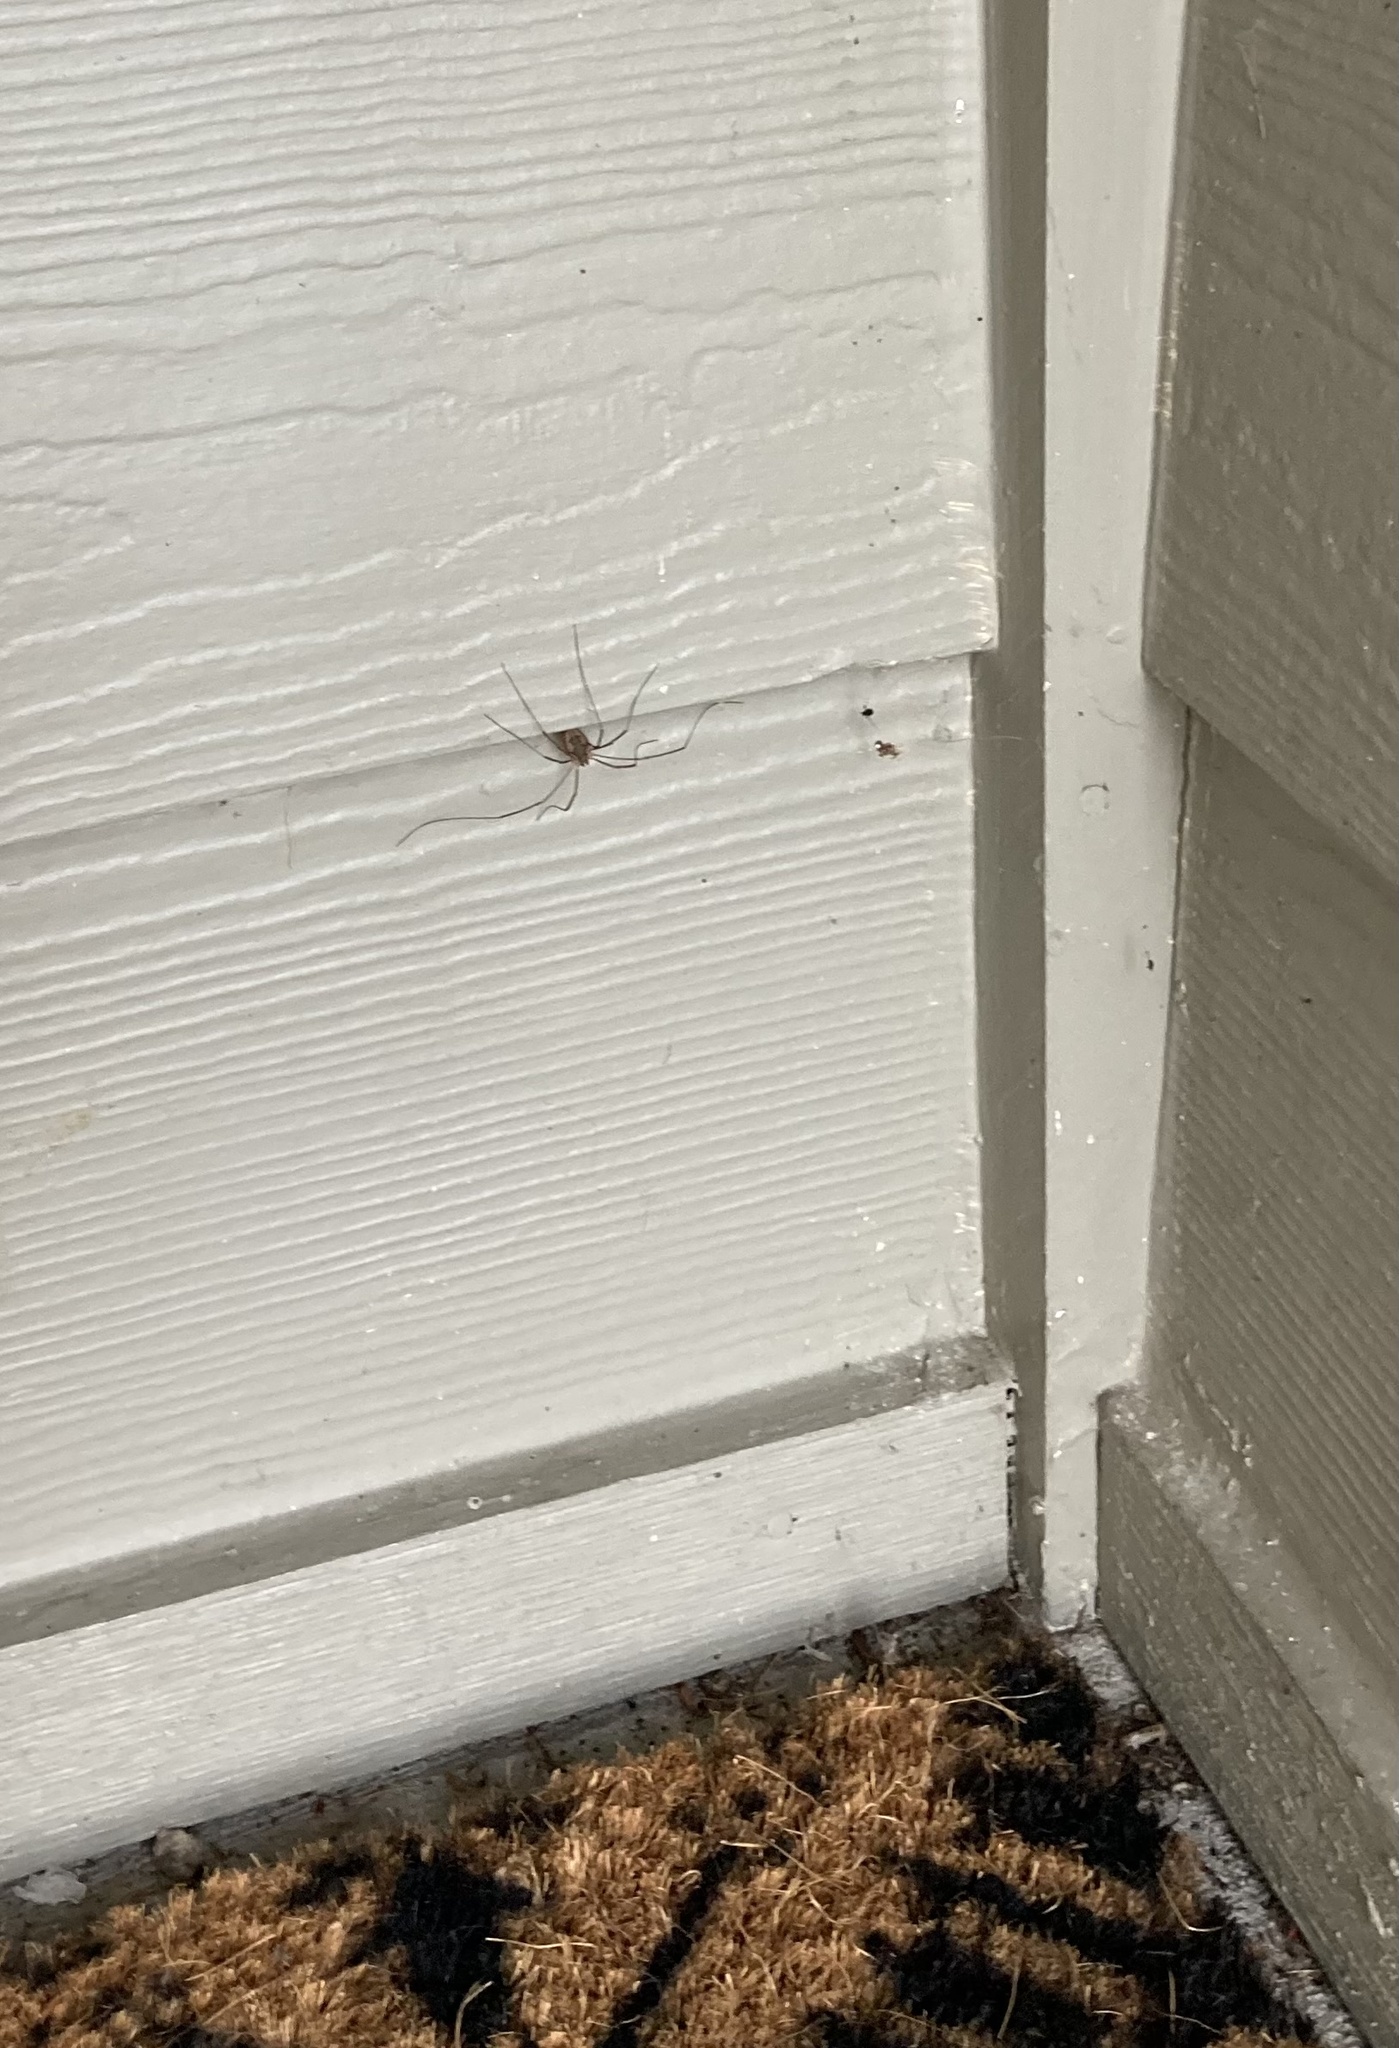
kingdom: Animalia
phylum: Arthropoda
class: Arachnida
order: Opiliones
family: Phalangiidae
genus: Phalangium
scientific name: Phalangium opilio
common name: Daddy longleg
